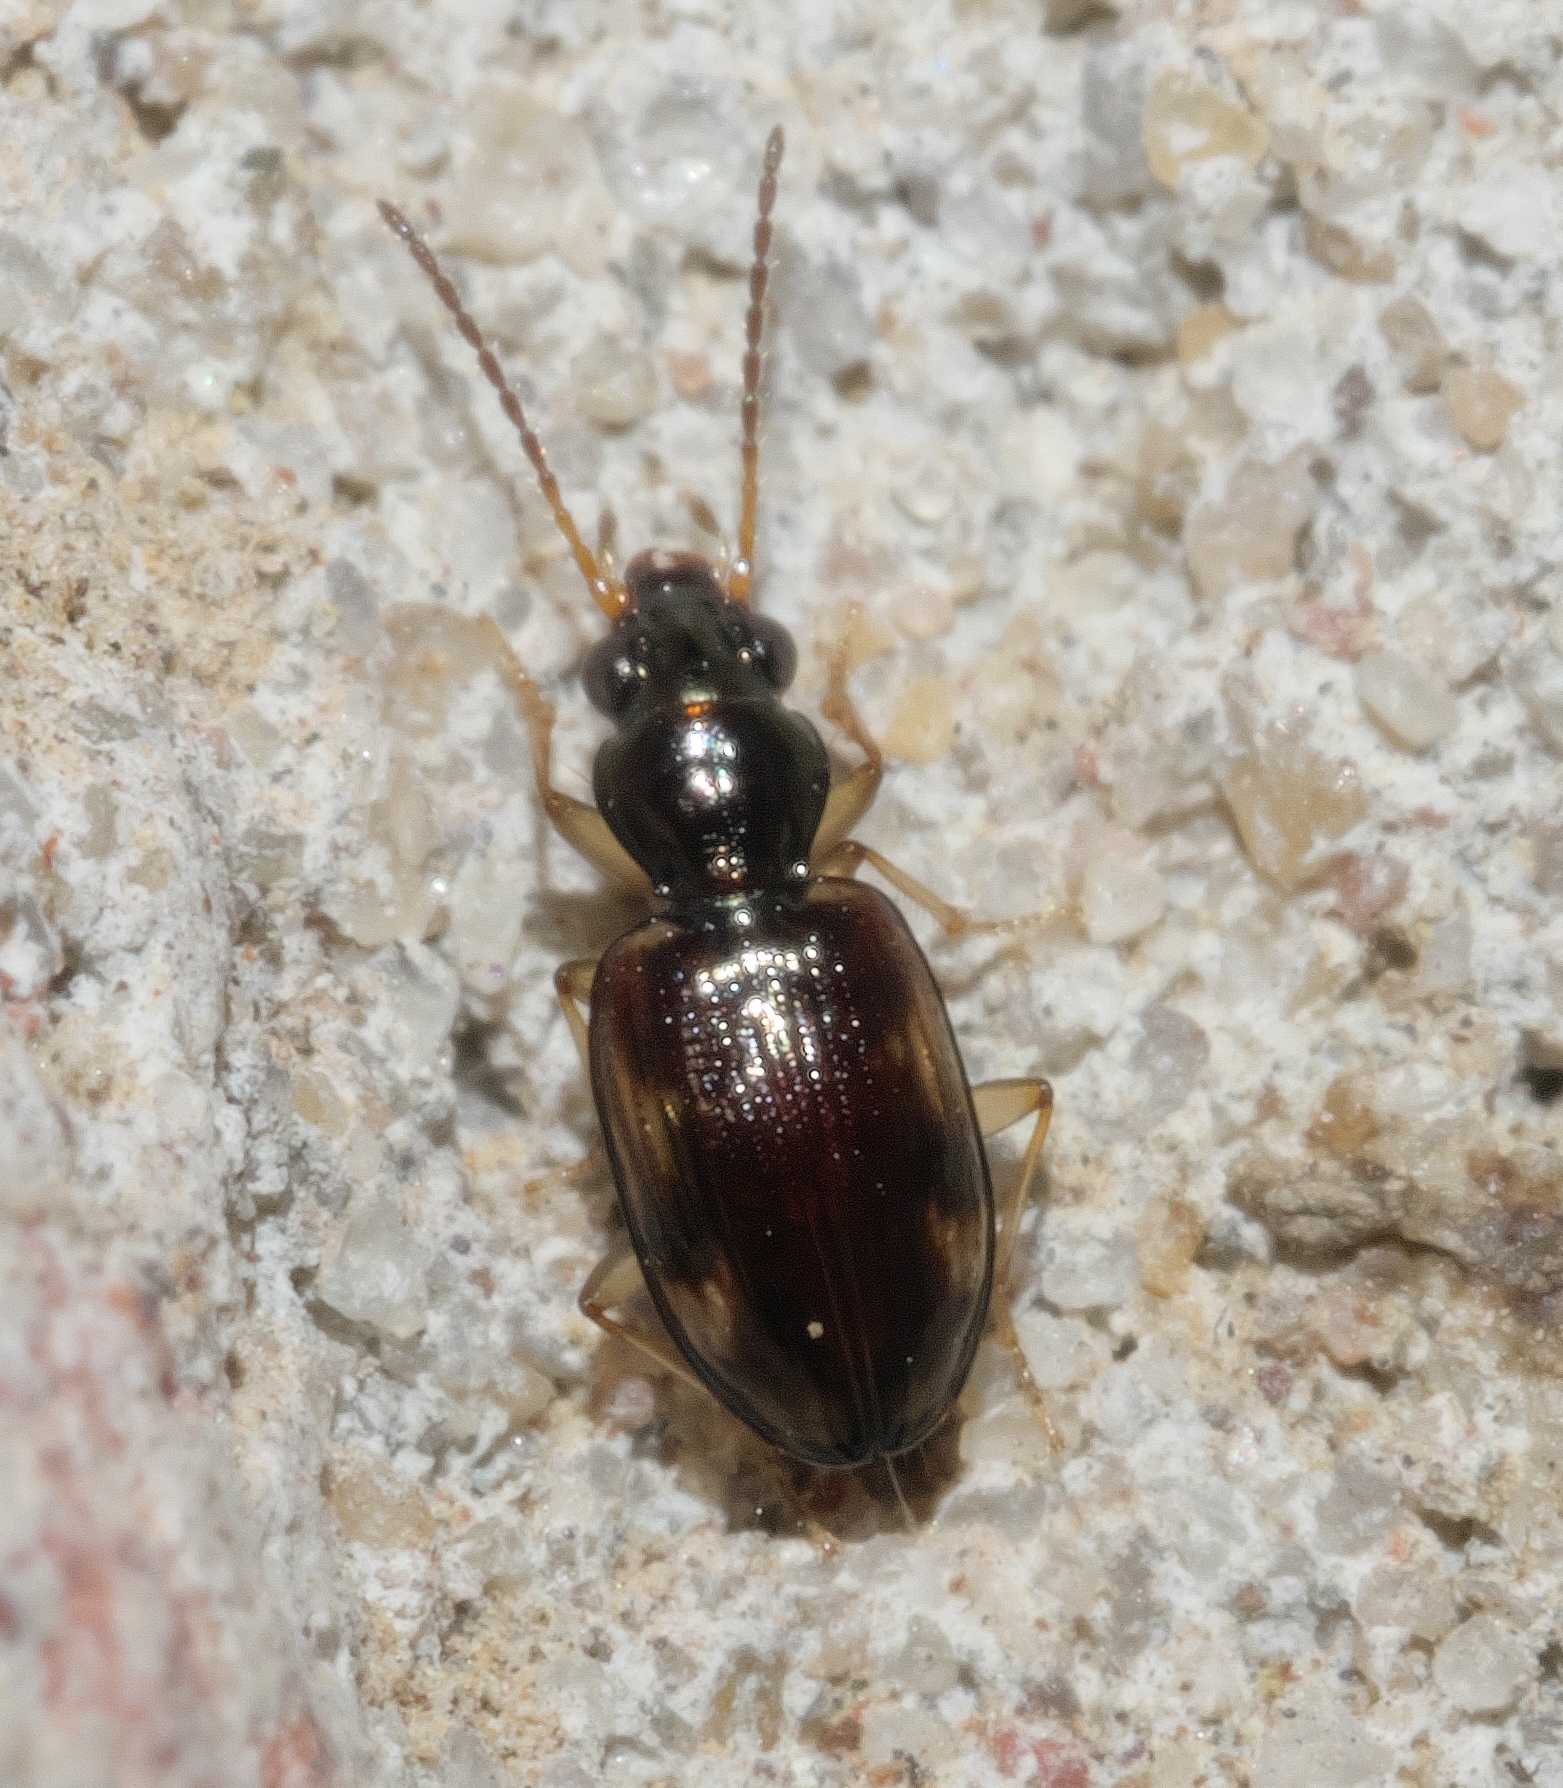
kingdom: Animalia
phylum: Arthropoda
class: Insecta
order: Coleoptera
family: Carabidae
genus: Bembidion
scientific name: Bembidion affine
